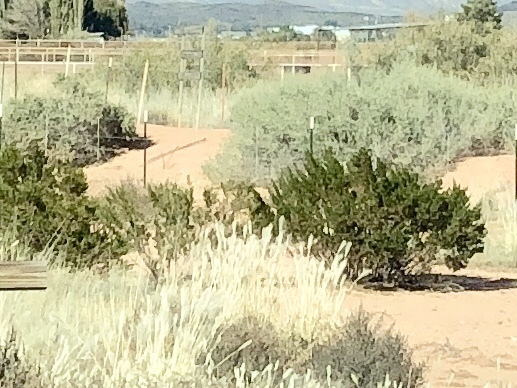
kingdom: Plantae
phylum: Tracheophyta
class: Magnoliopsida
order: Zygophyllales
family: Zygophyllaceae
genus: Larrea
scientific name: Larrea tridentata
